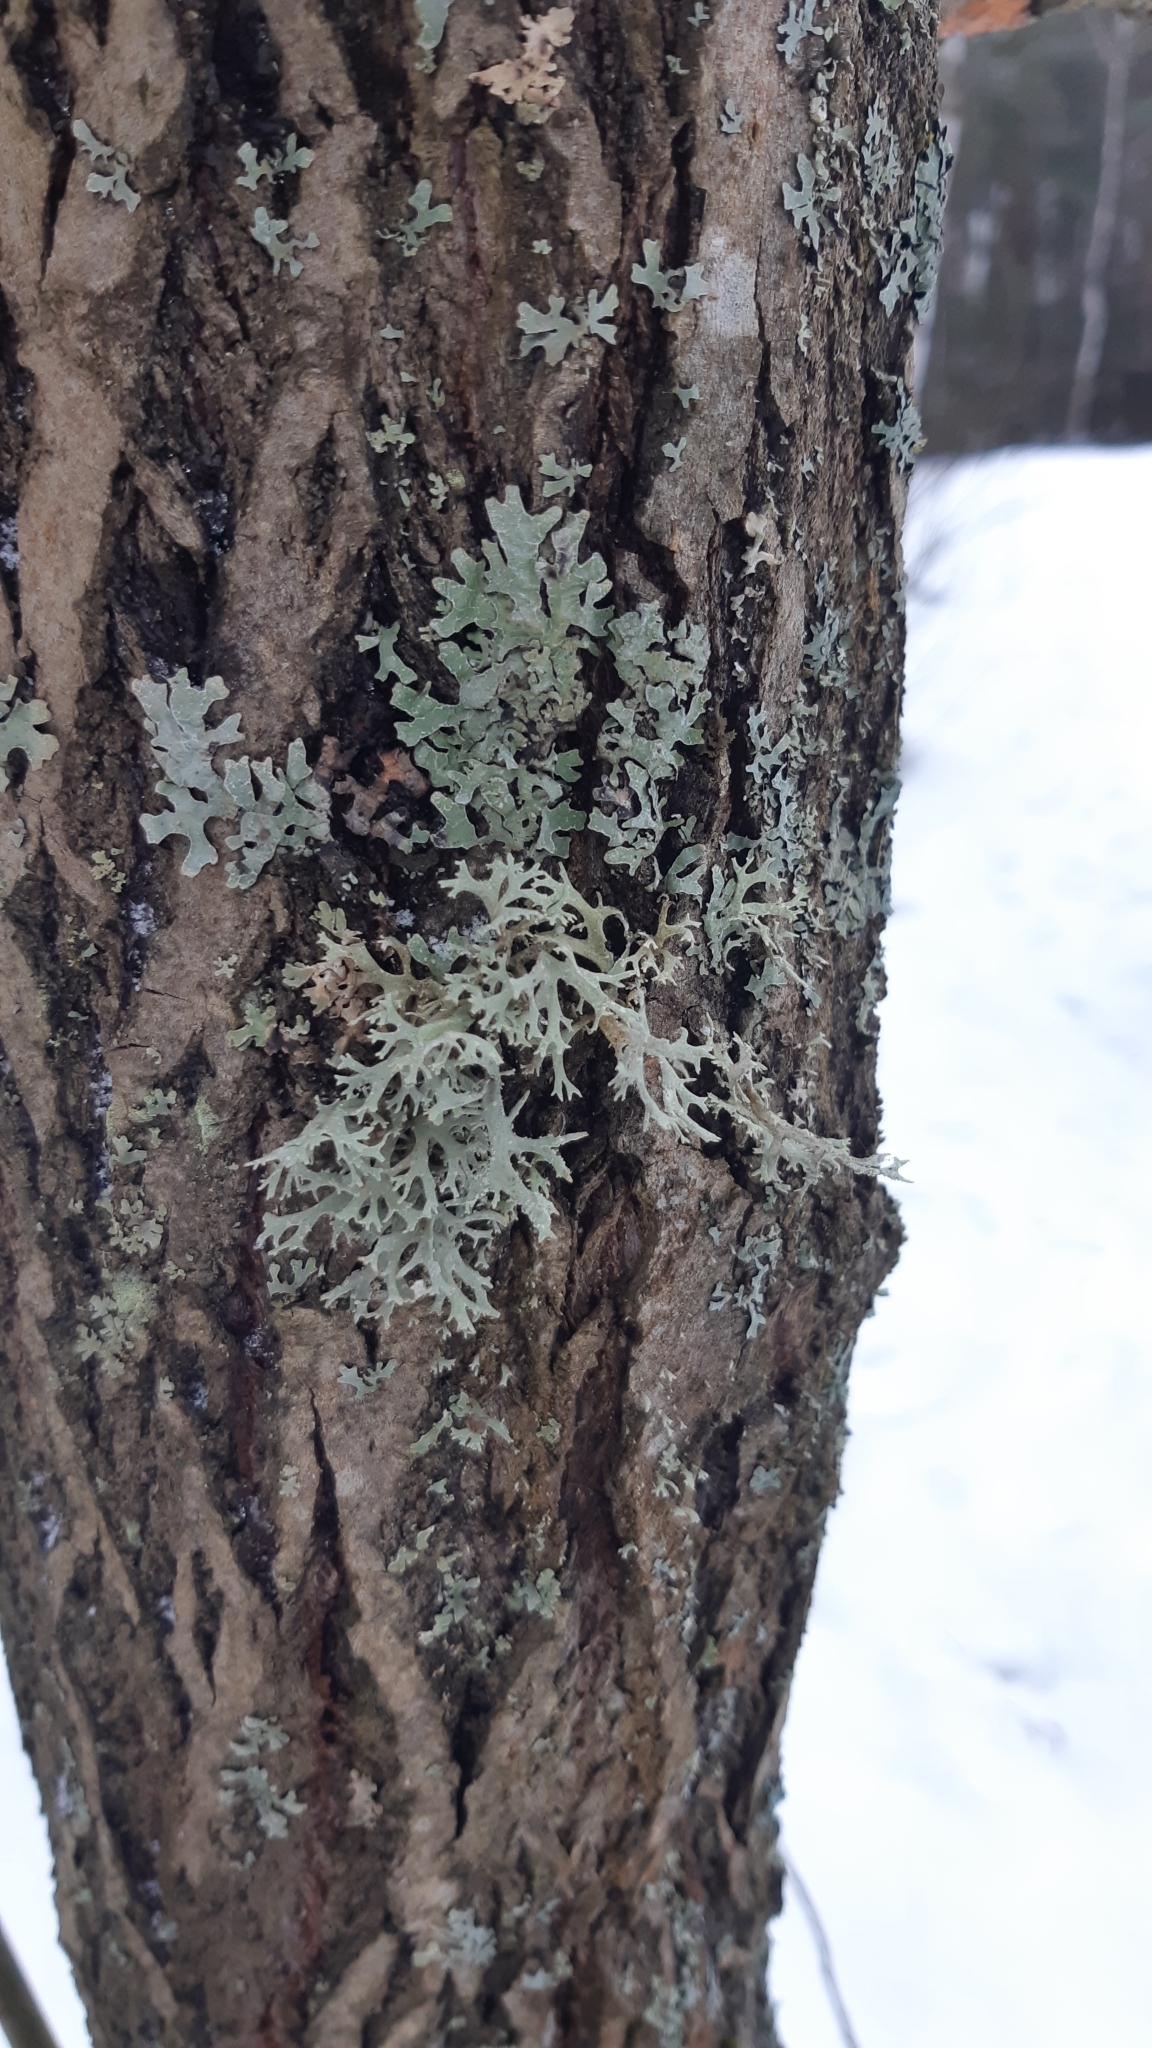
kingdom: Fungi
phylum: Ascomycota
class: Lecanoromycetes
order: Lecanorales
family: Parmeliaceae
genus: Evernia
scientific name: Evernia prunastri
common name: Oak moss
